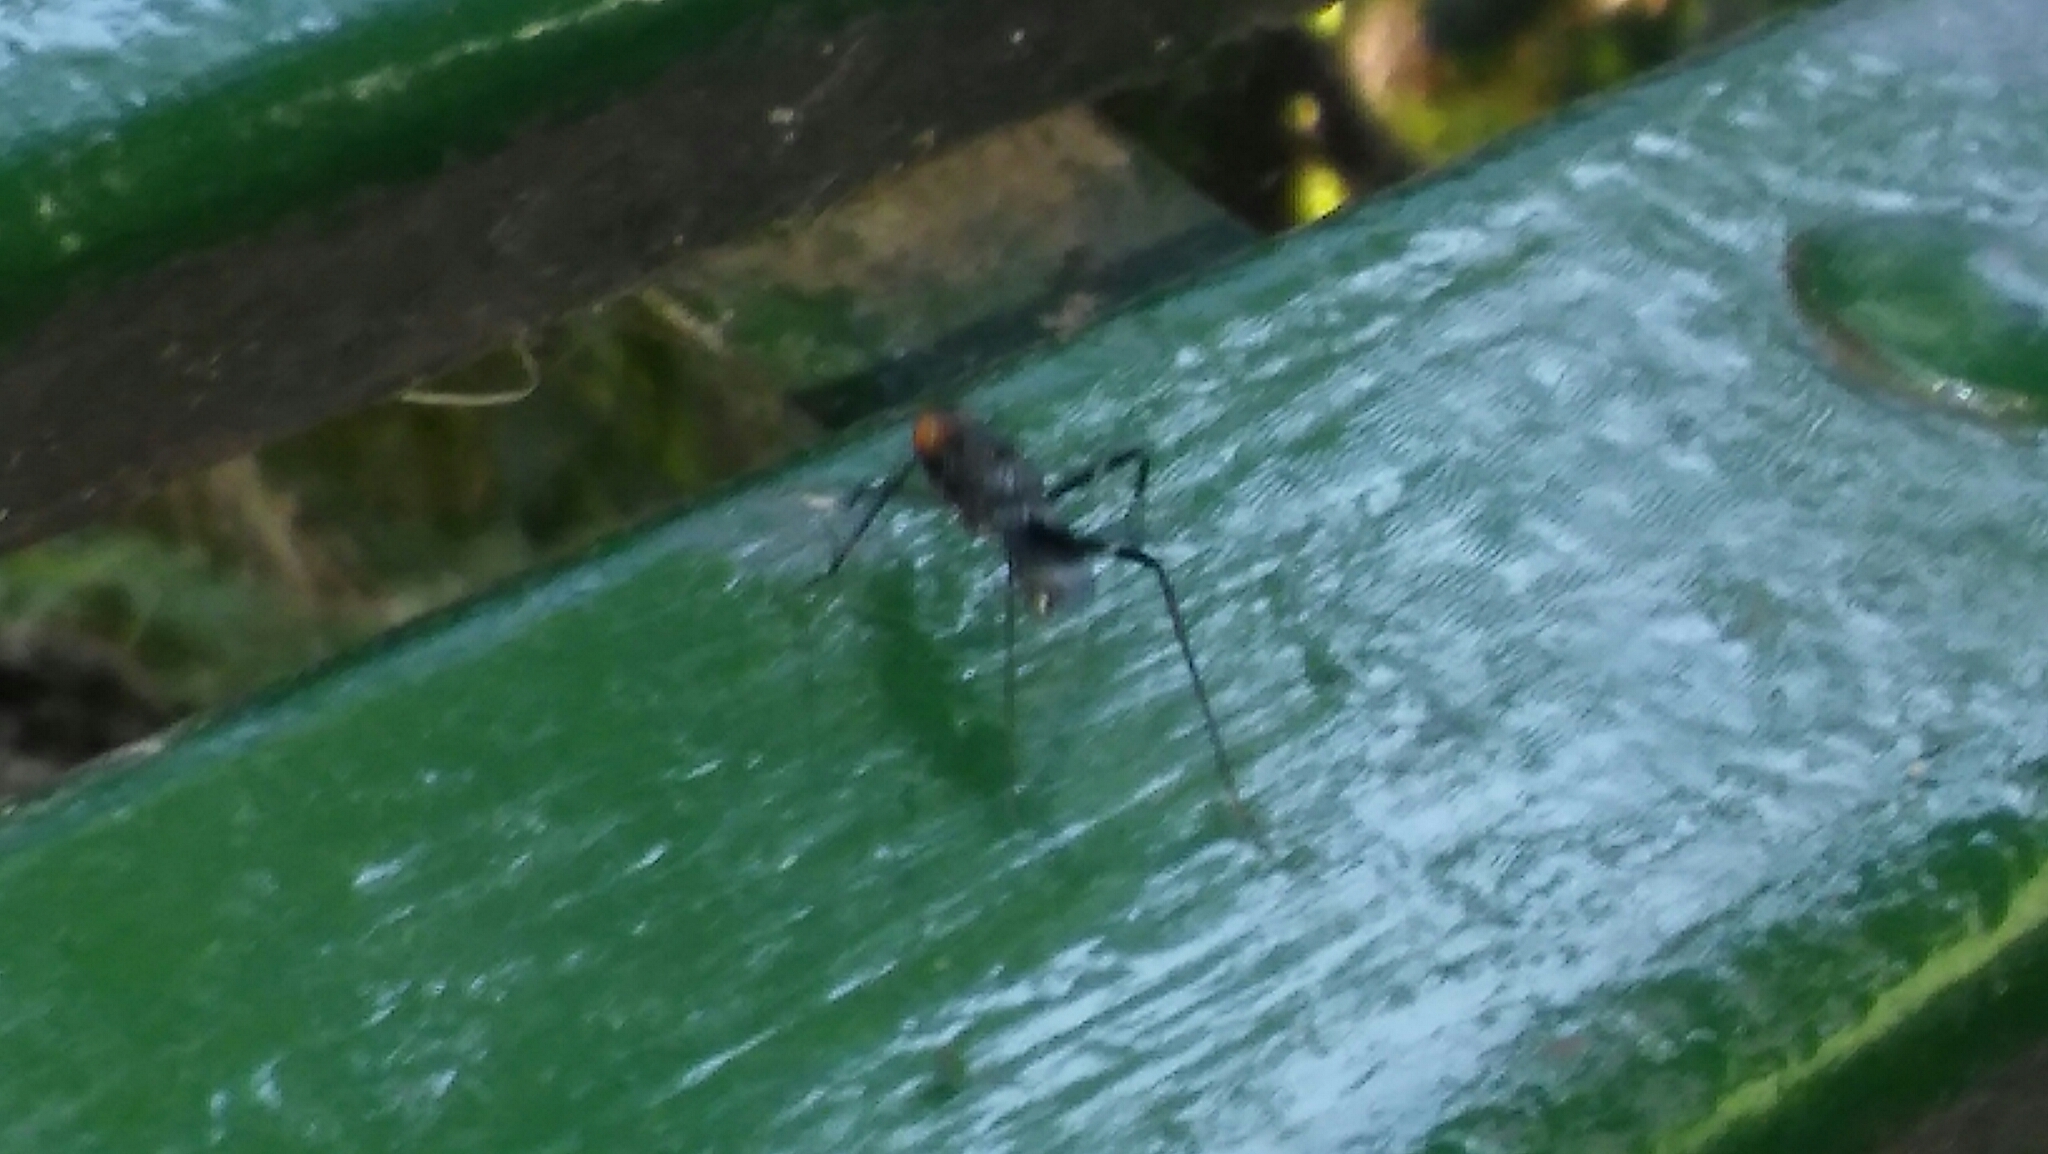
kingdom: Animalia
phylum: Arthropoda
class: Insecta
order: Diptera
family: Micropezidae
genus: Paragrallomyia
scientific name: Paragrallomyia
